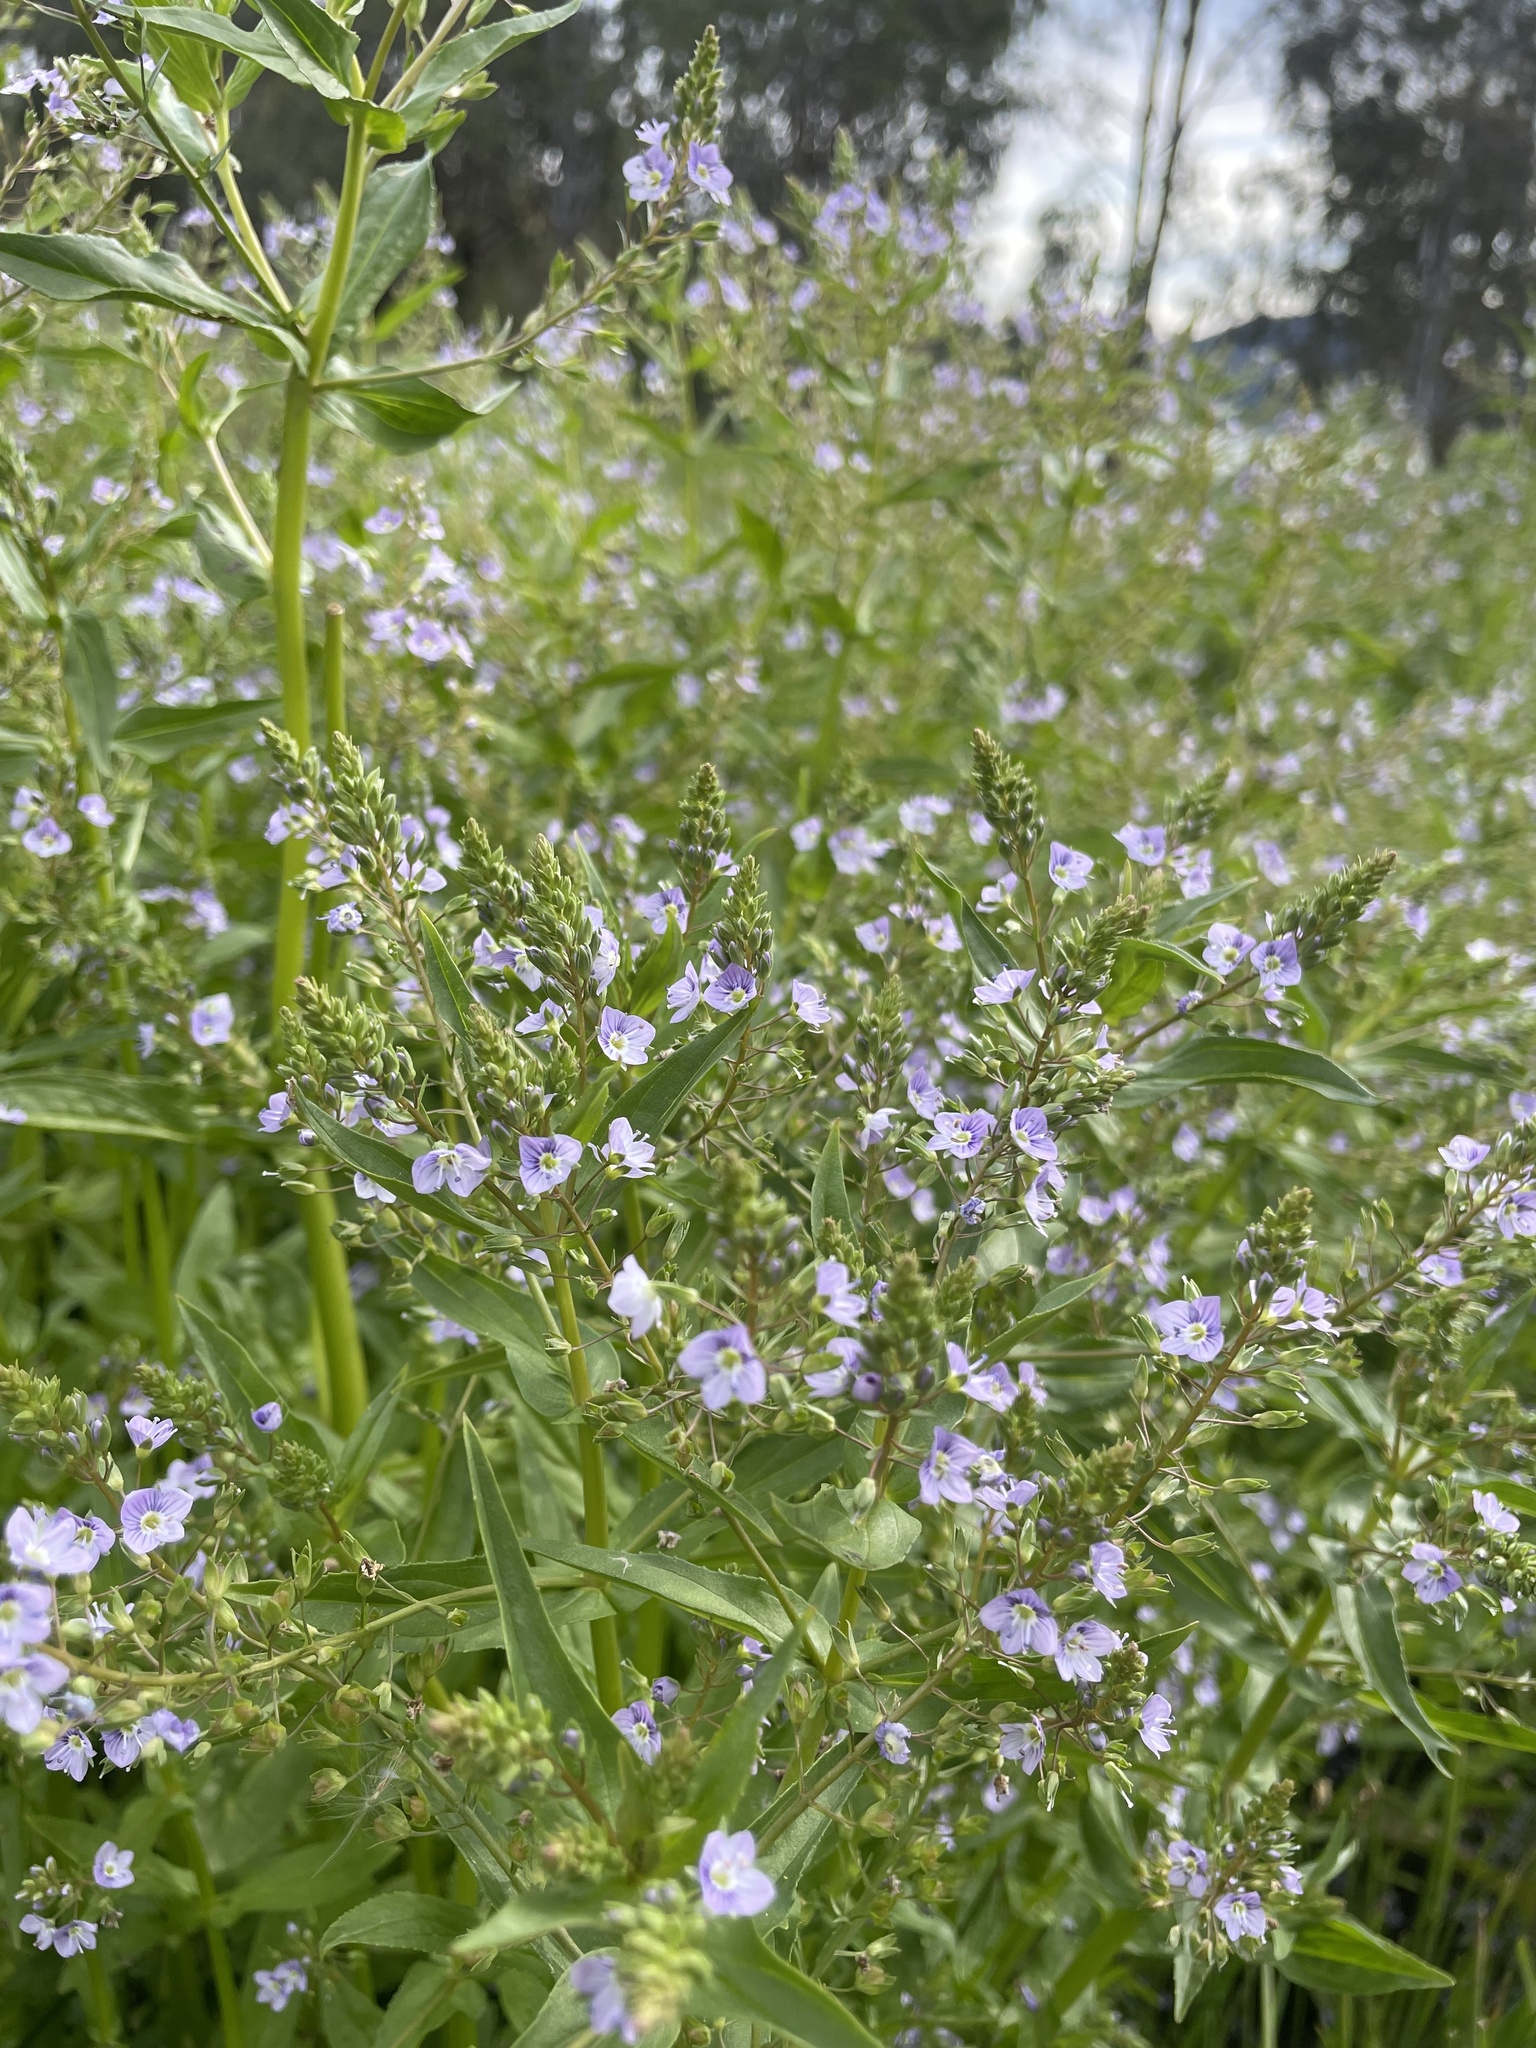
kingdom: Plantae
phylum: Tracheophyta
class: Magnoliopsida
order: Lamiales
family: Plantaginaceae
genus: Veronica
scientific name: Veronica anagallis-aquatica
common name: Water speedwell
